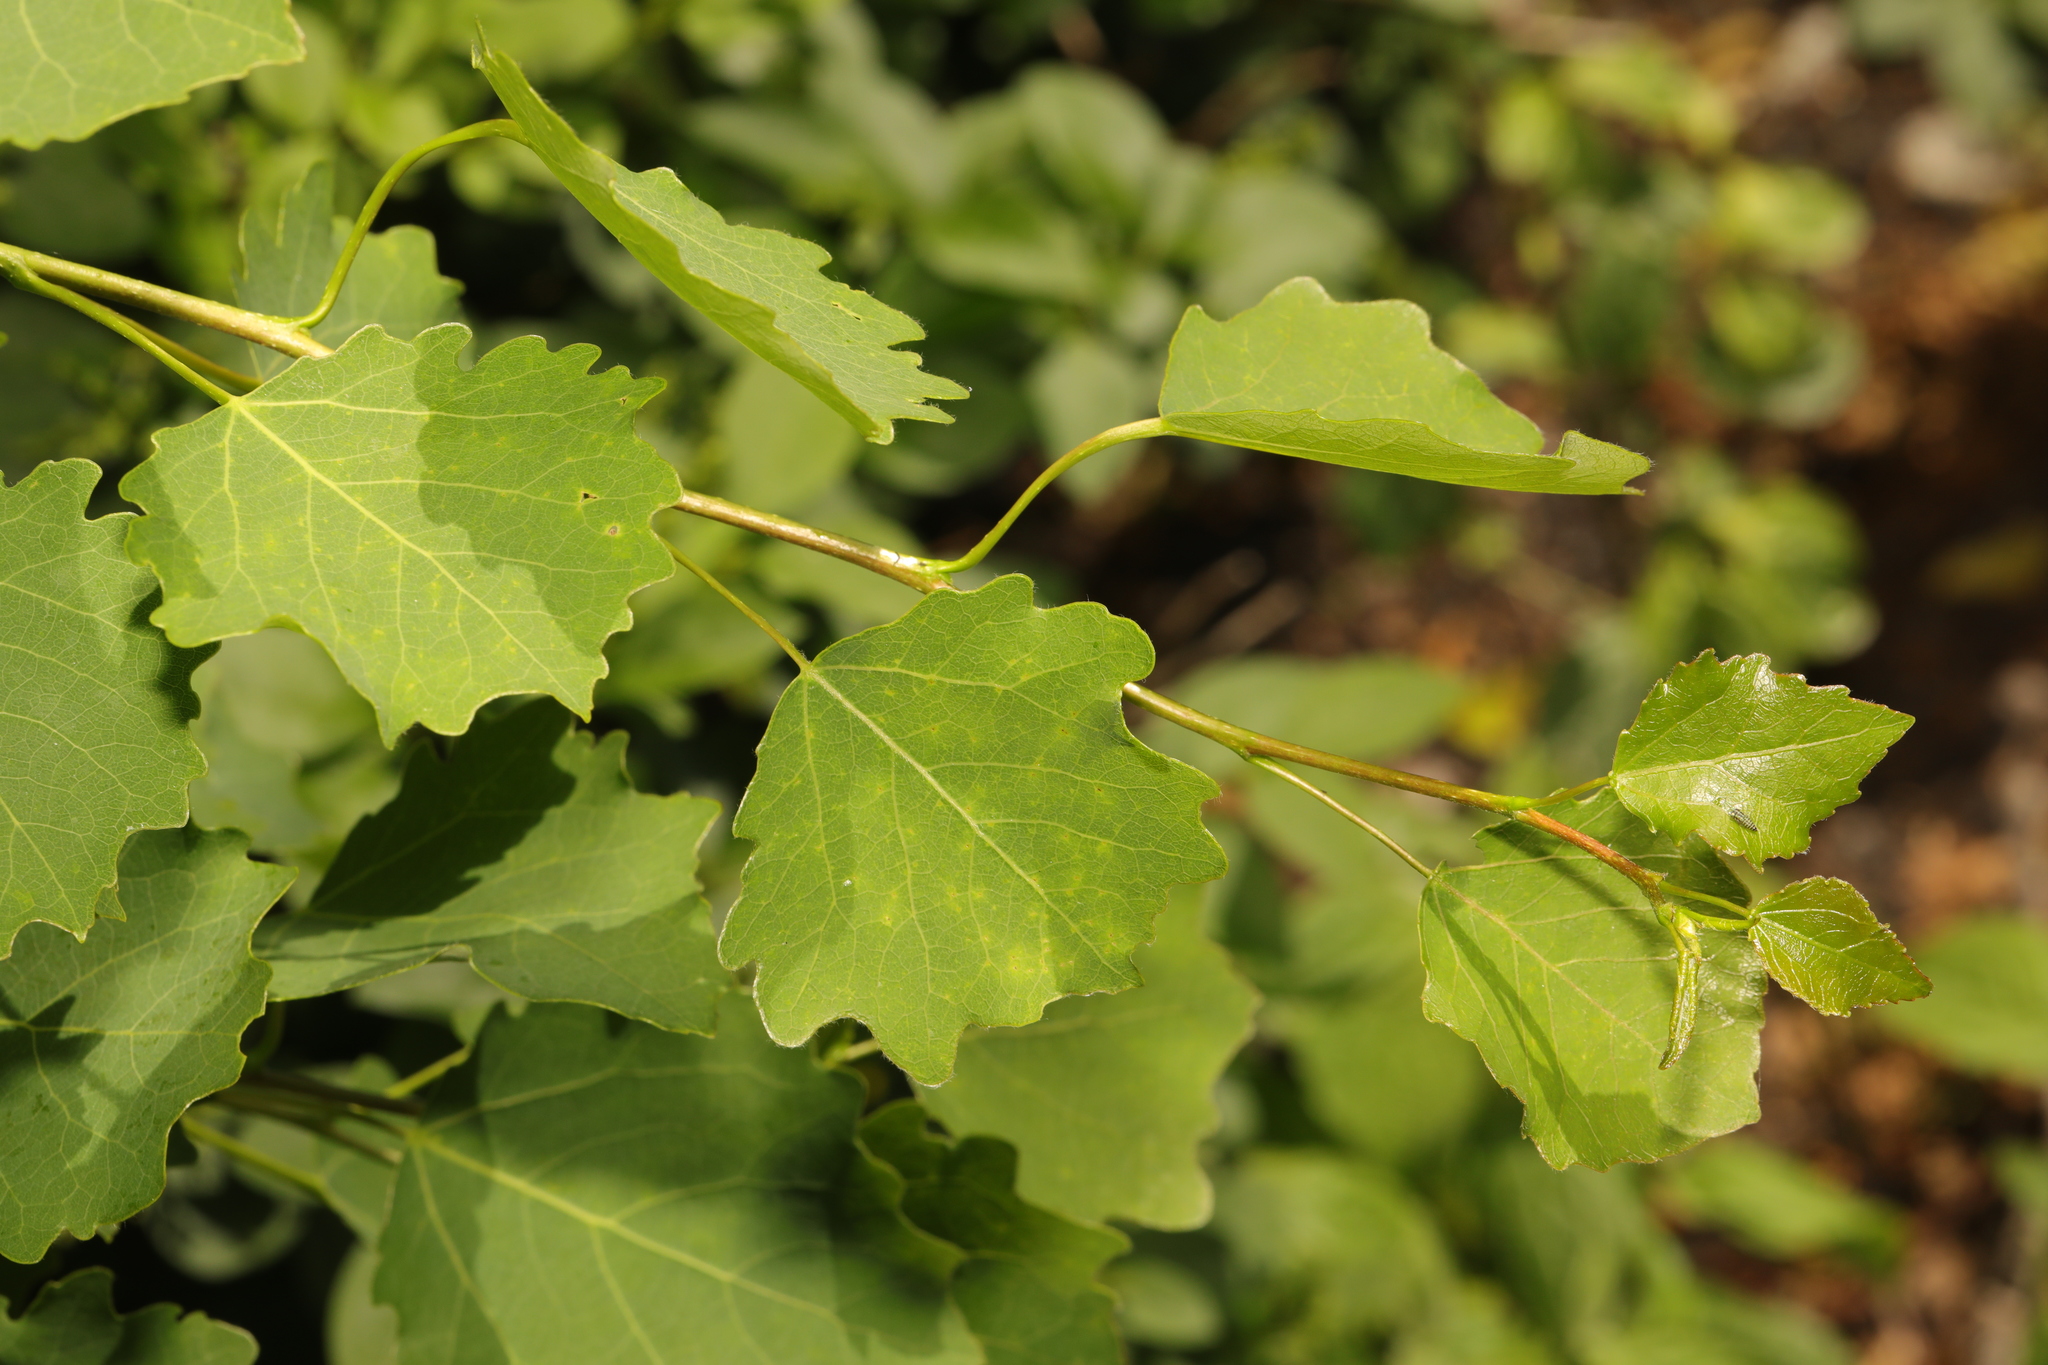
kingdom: Plantae
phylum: Tracheophyta
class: Magnoliopsida
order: Malpighiales
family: Salicaceae
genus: Populus
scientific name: Populus tremula
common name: European aspen
